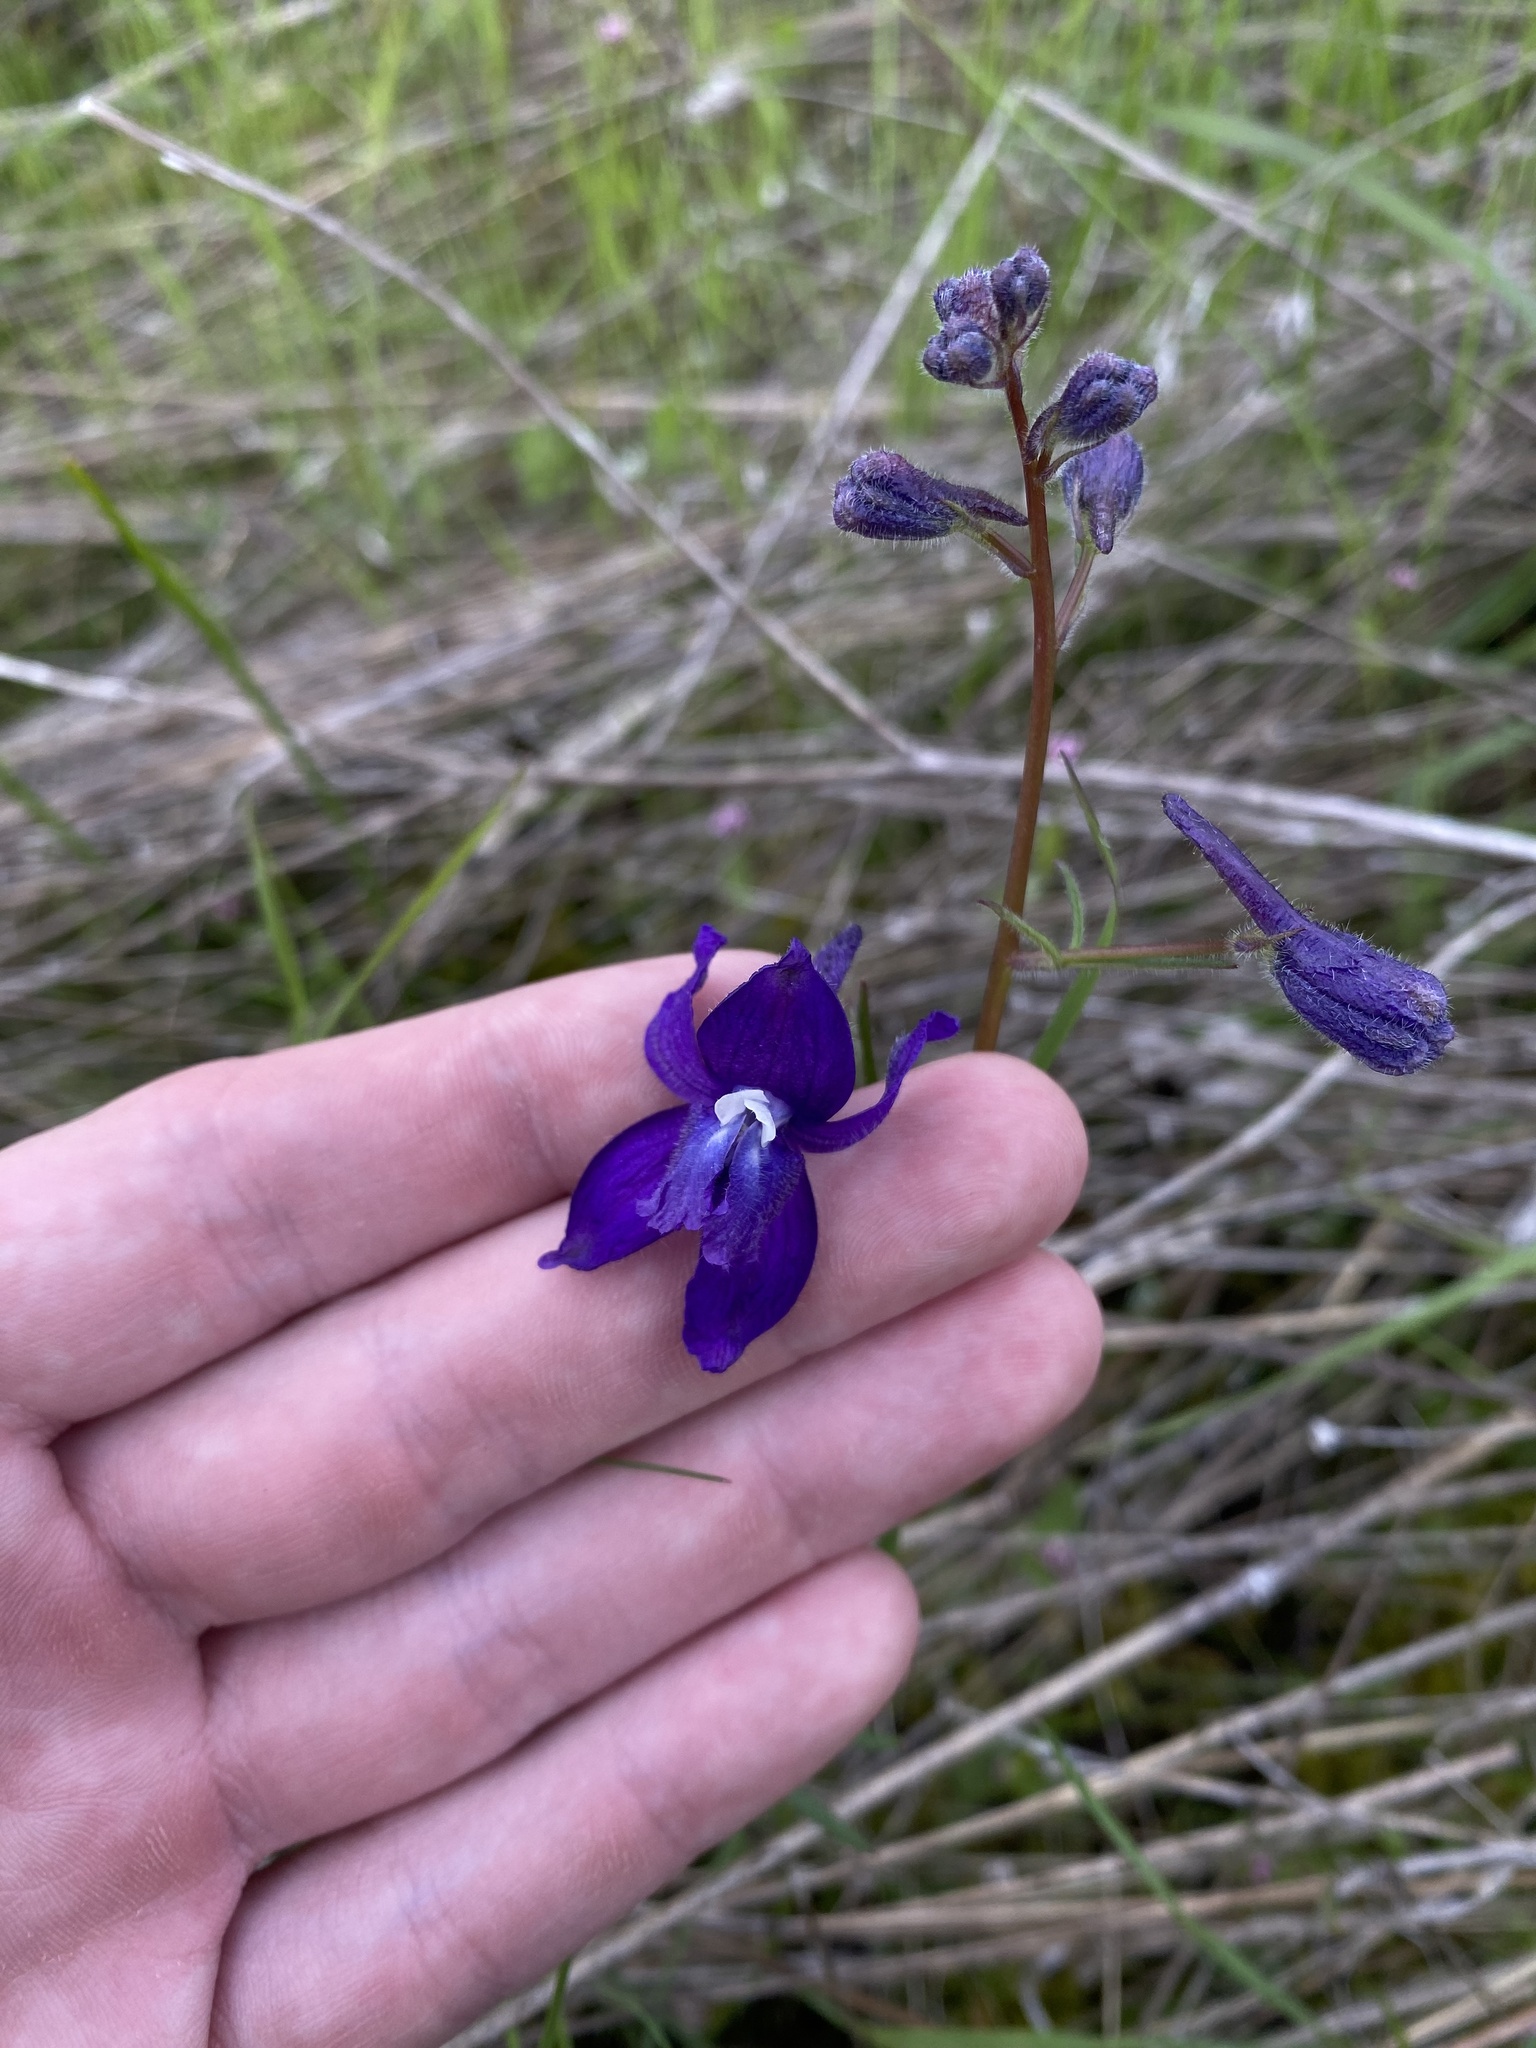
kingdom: Plantae
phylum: Tracheophyta
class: Magnoliopsida
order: Ranunculales
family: Ranunculaceae
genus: Delphinium
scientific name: Delphinium menziesii
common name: Menzies's larkspur
